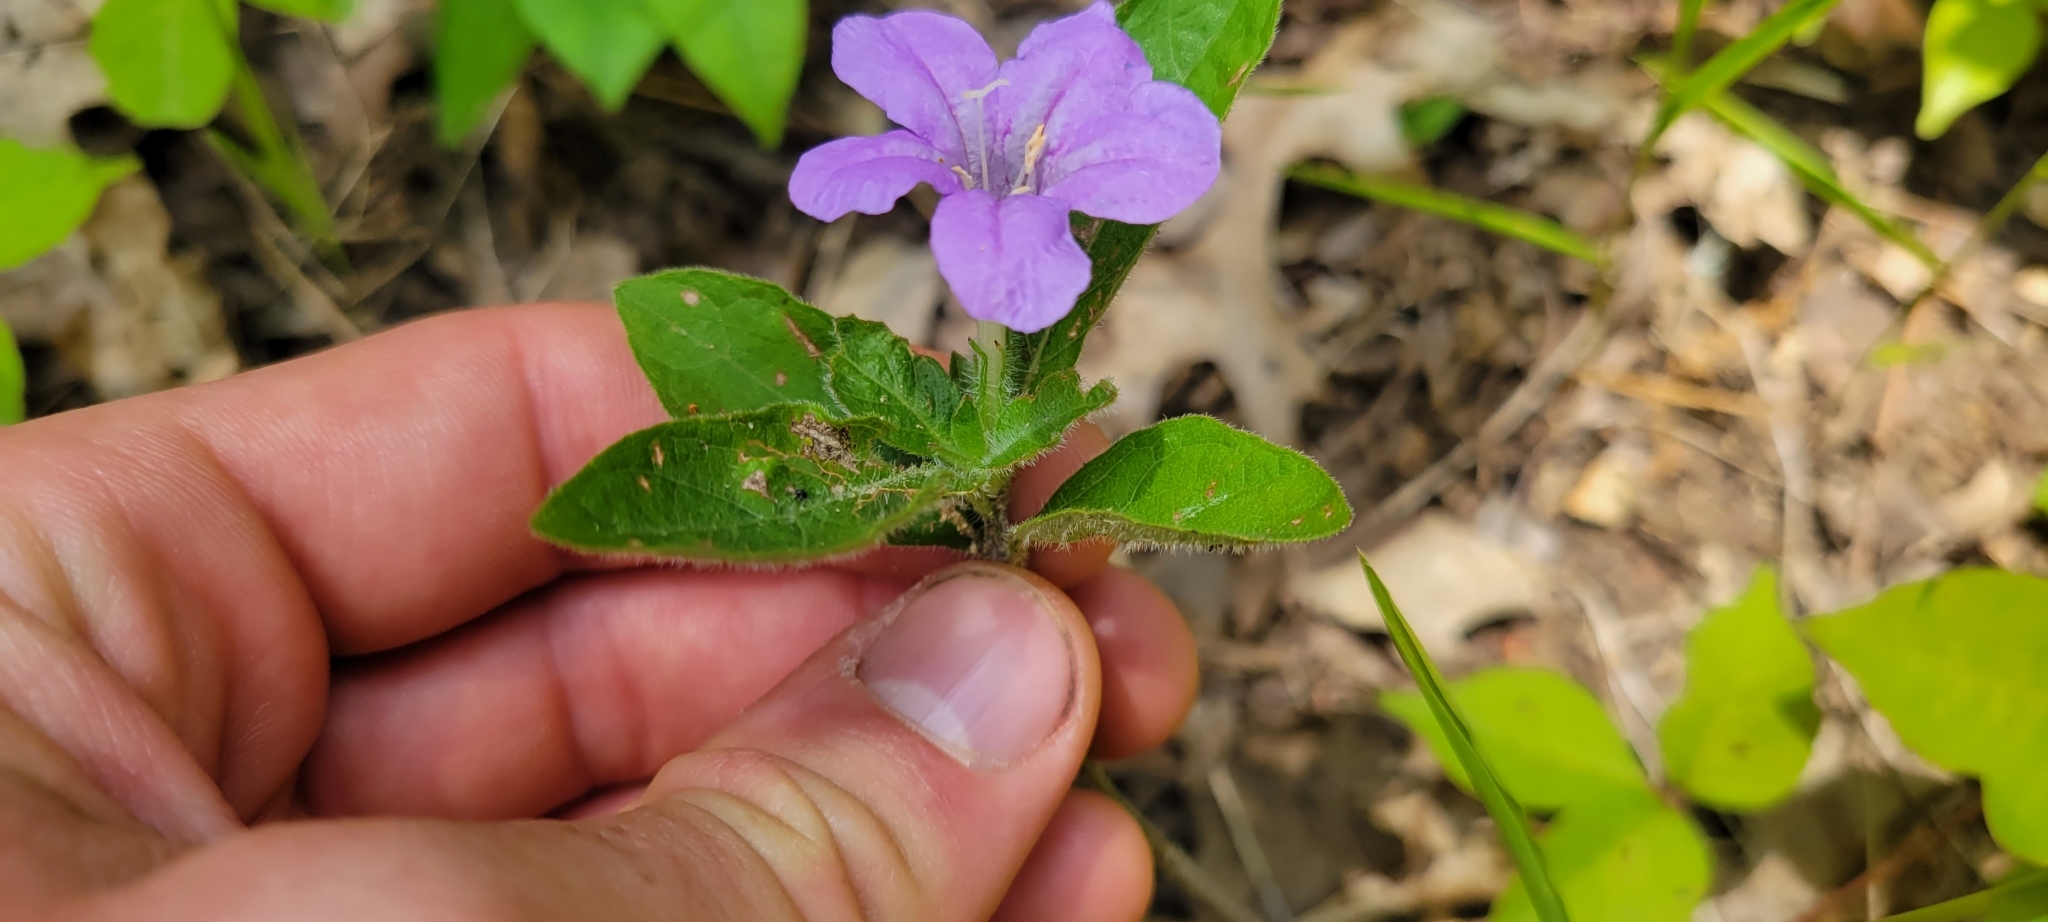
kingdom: Plantae
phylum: Tracheophyta
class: Magnoliopsida
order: Lamiales
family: Acanthaceae
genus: Ruellia
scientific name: Ruellia caroliniensis
